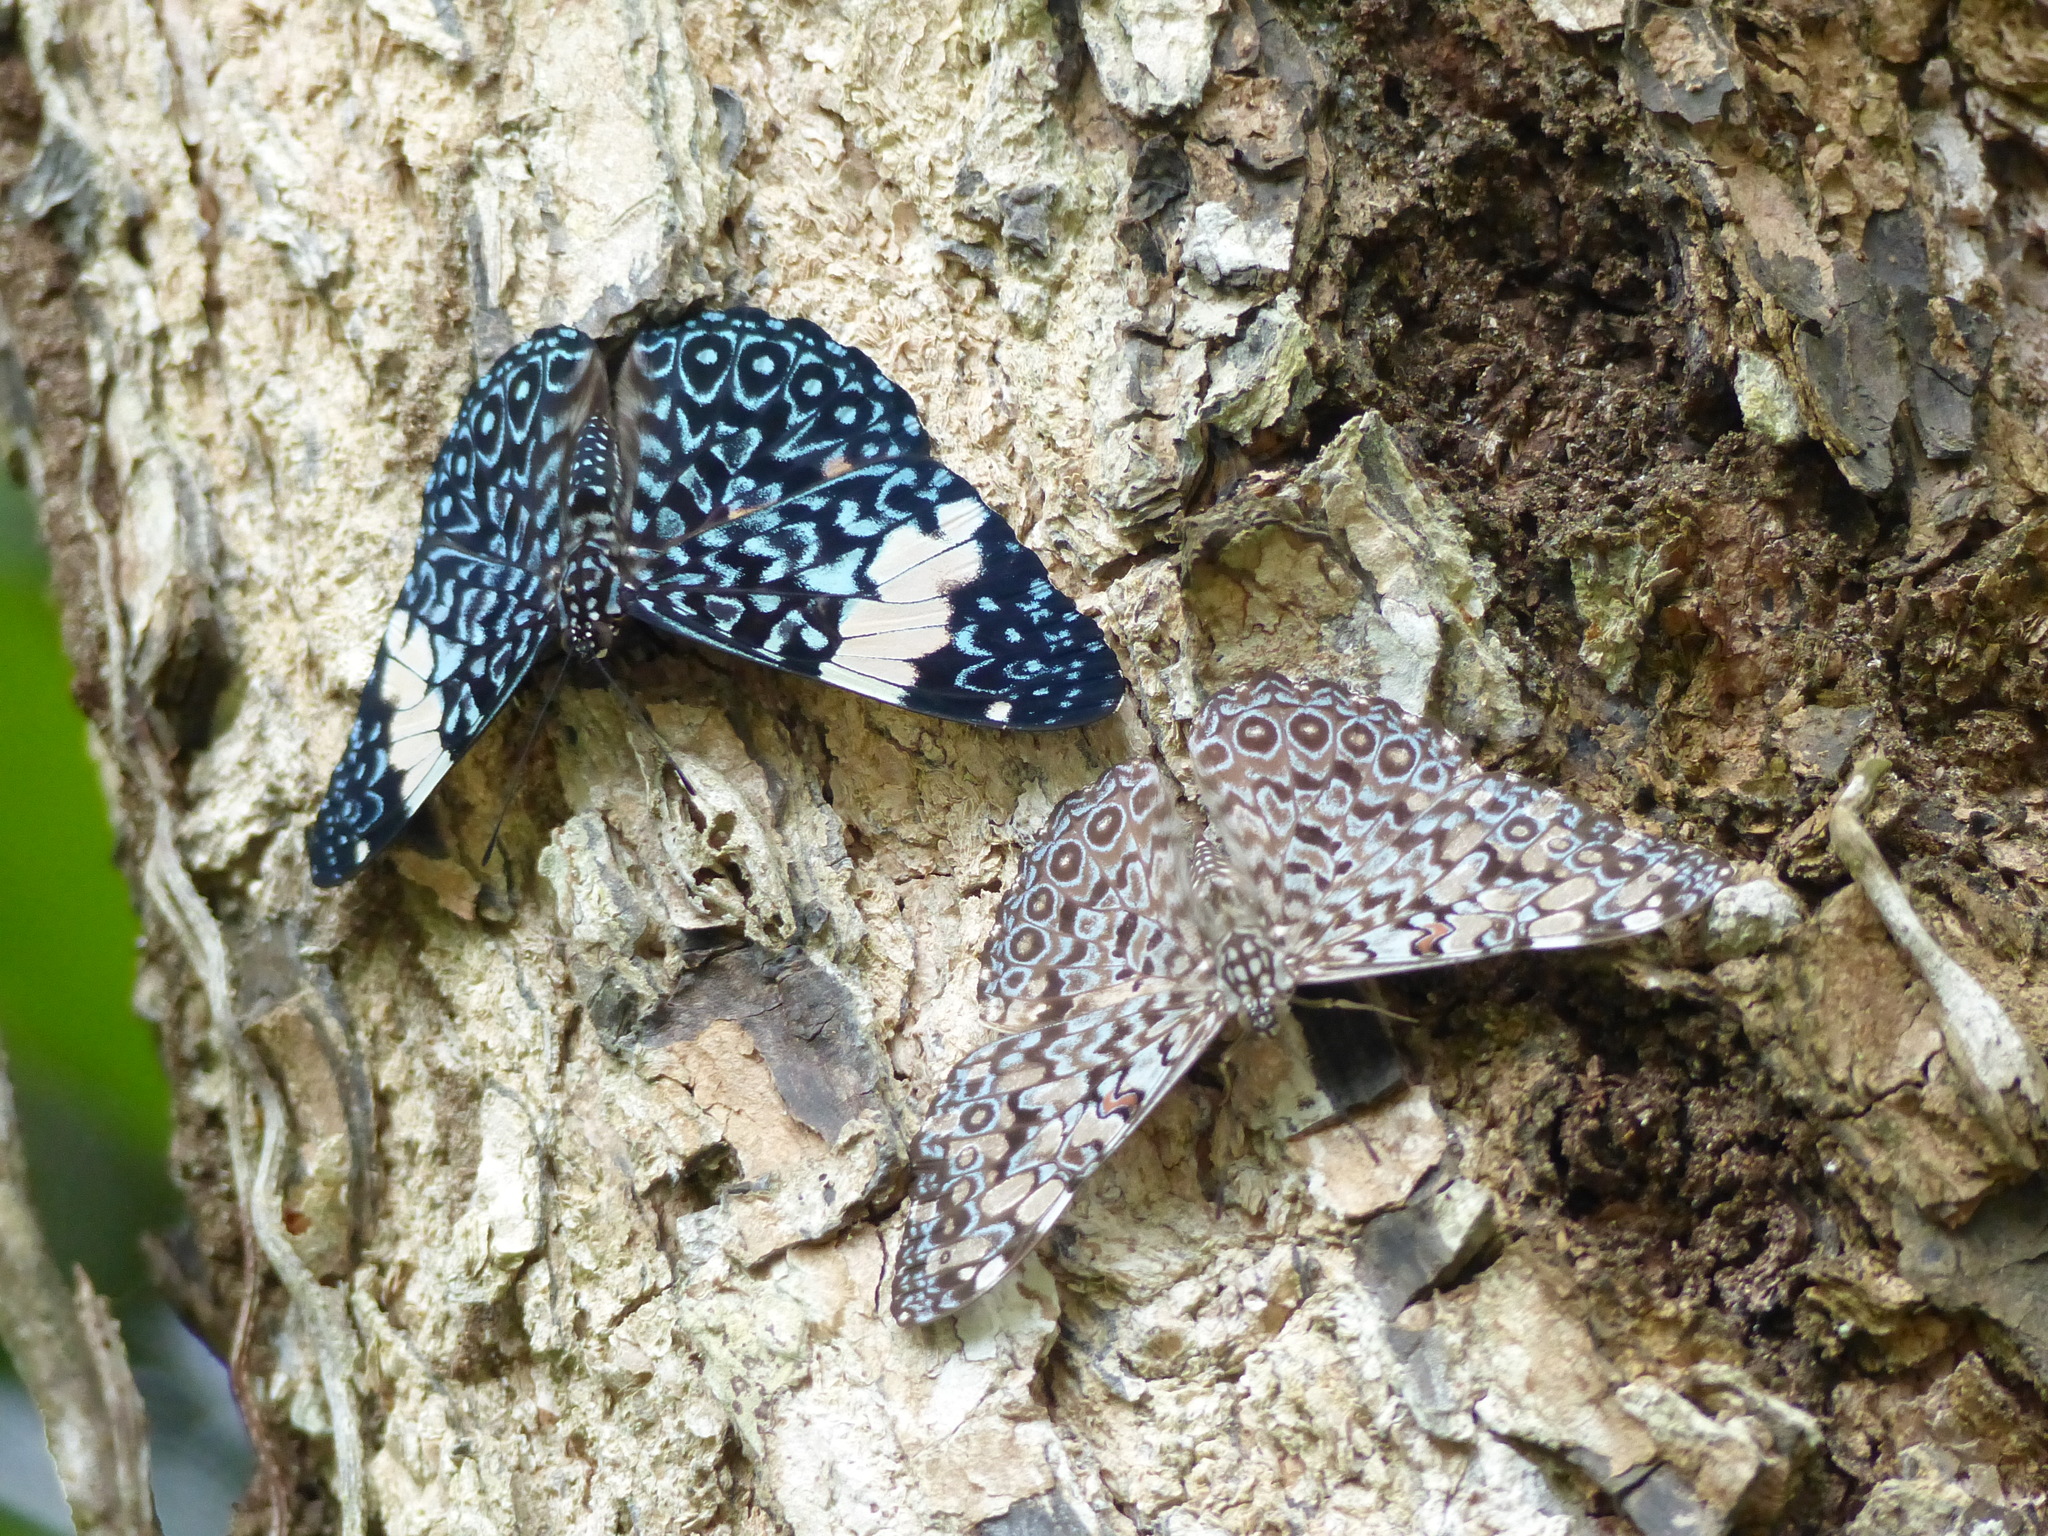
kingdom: Animalia
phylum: Arthropoda
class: Insecta
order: Lepidoptera
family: Nymphalidae
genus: Hamadryas
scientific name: Hamadryas feronia
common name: Variable cracker
